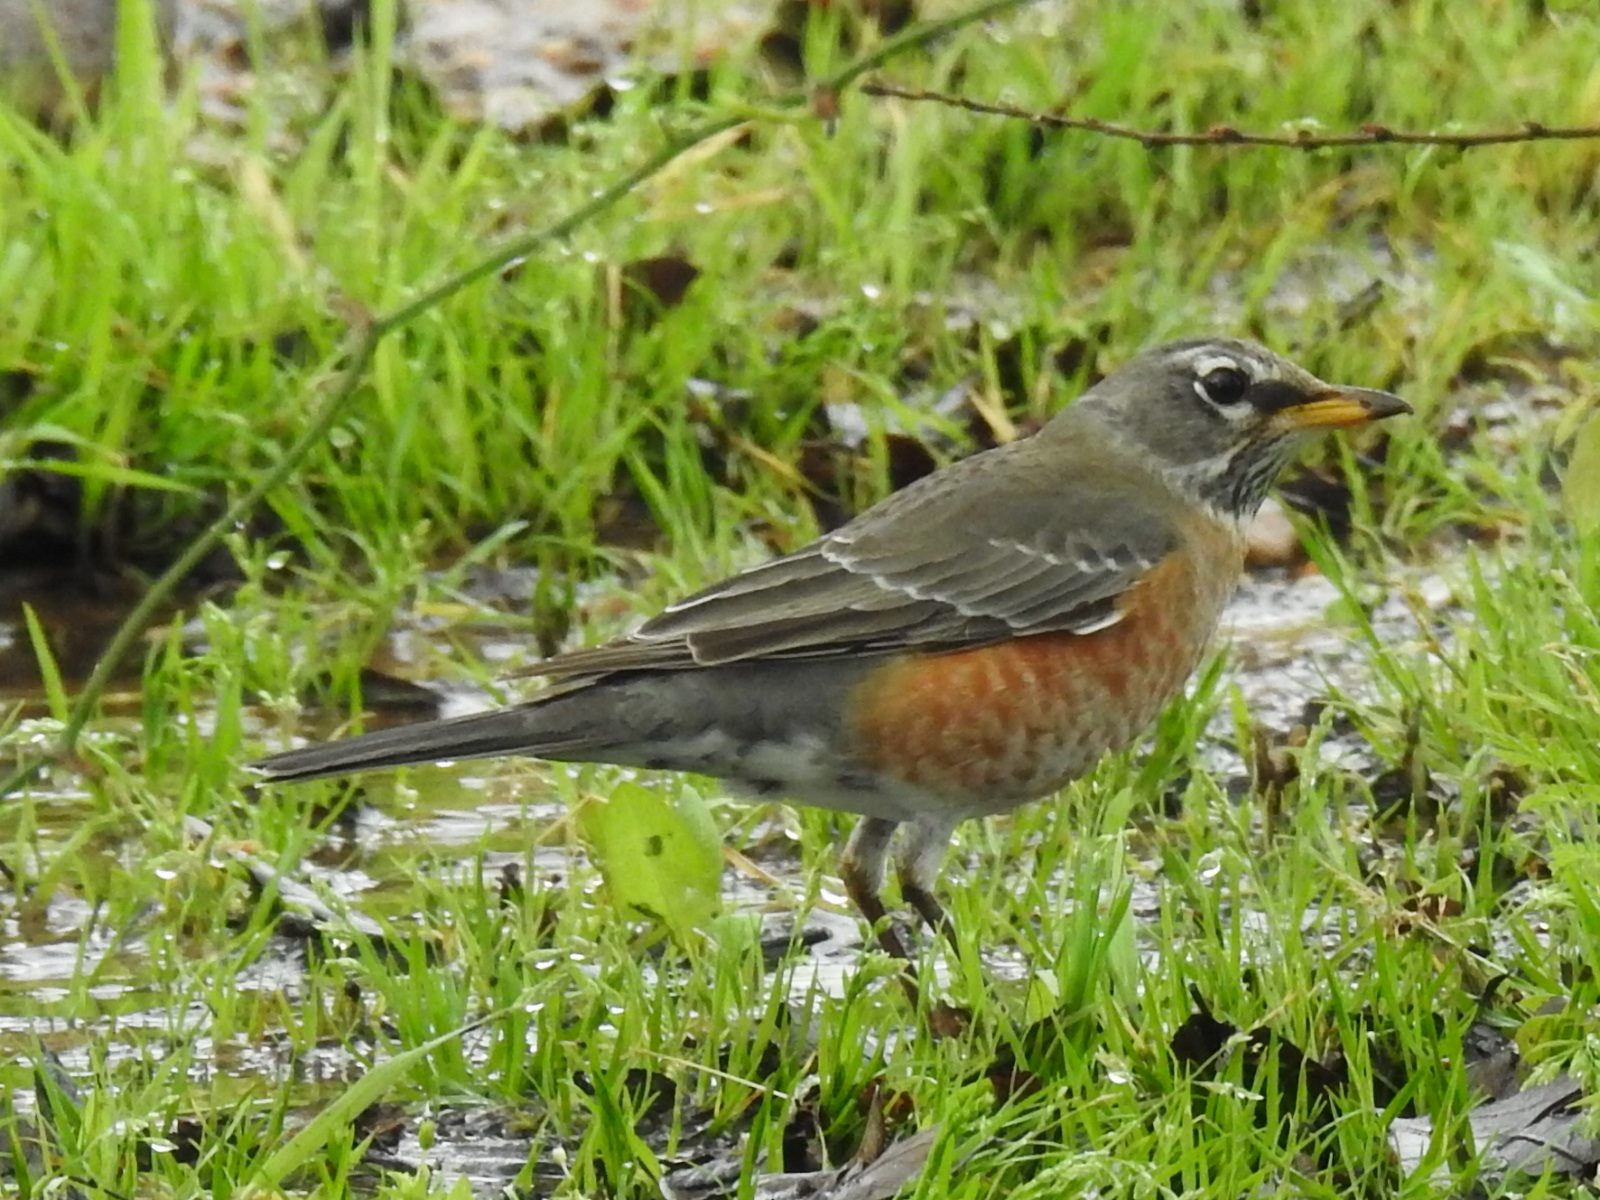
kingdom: Animalia
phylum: Chordata
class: Aves
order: Passeriformes
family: Turdidae
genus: Turdus
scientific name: Turdus migratorius
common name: American robin
